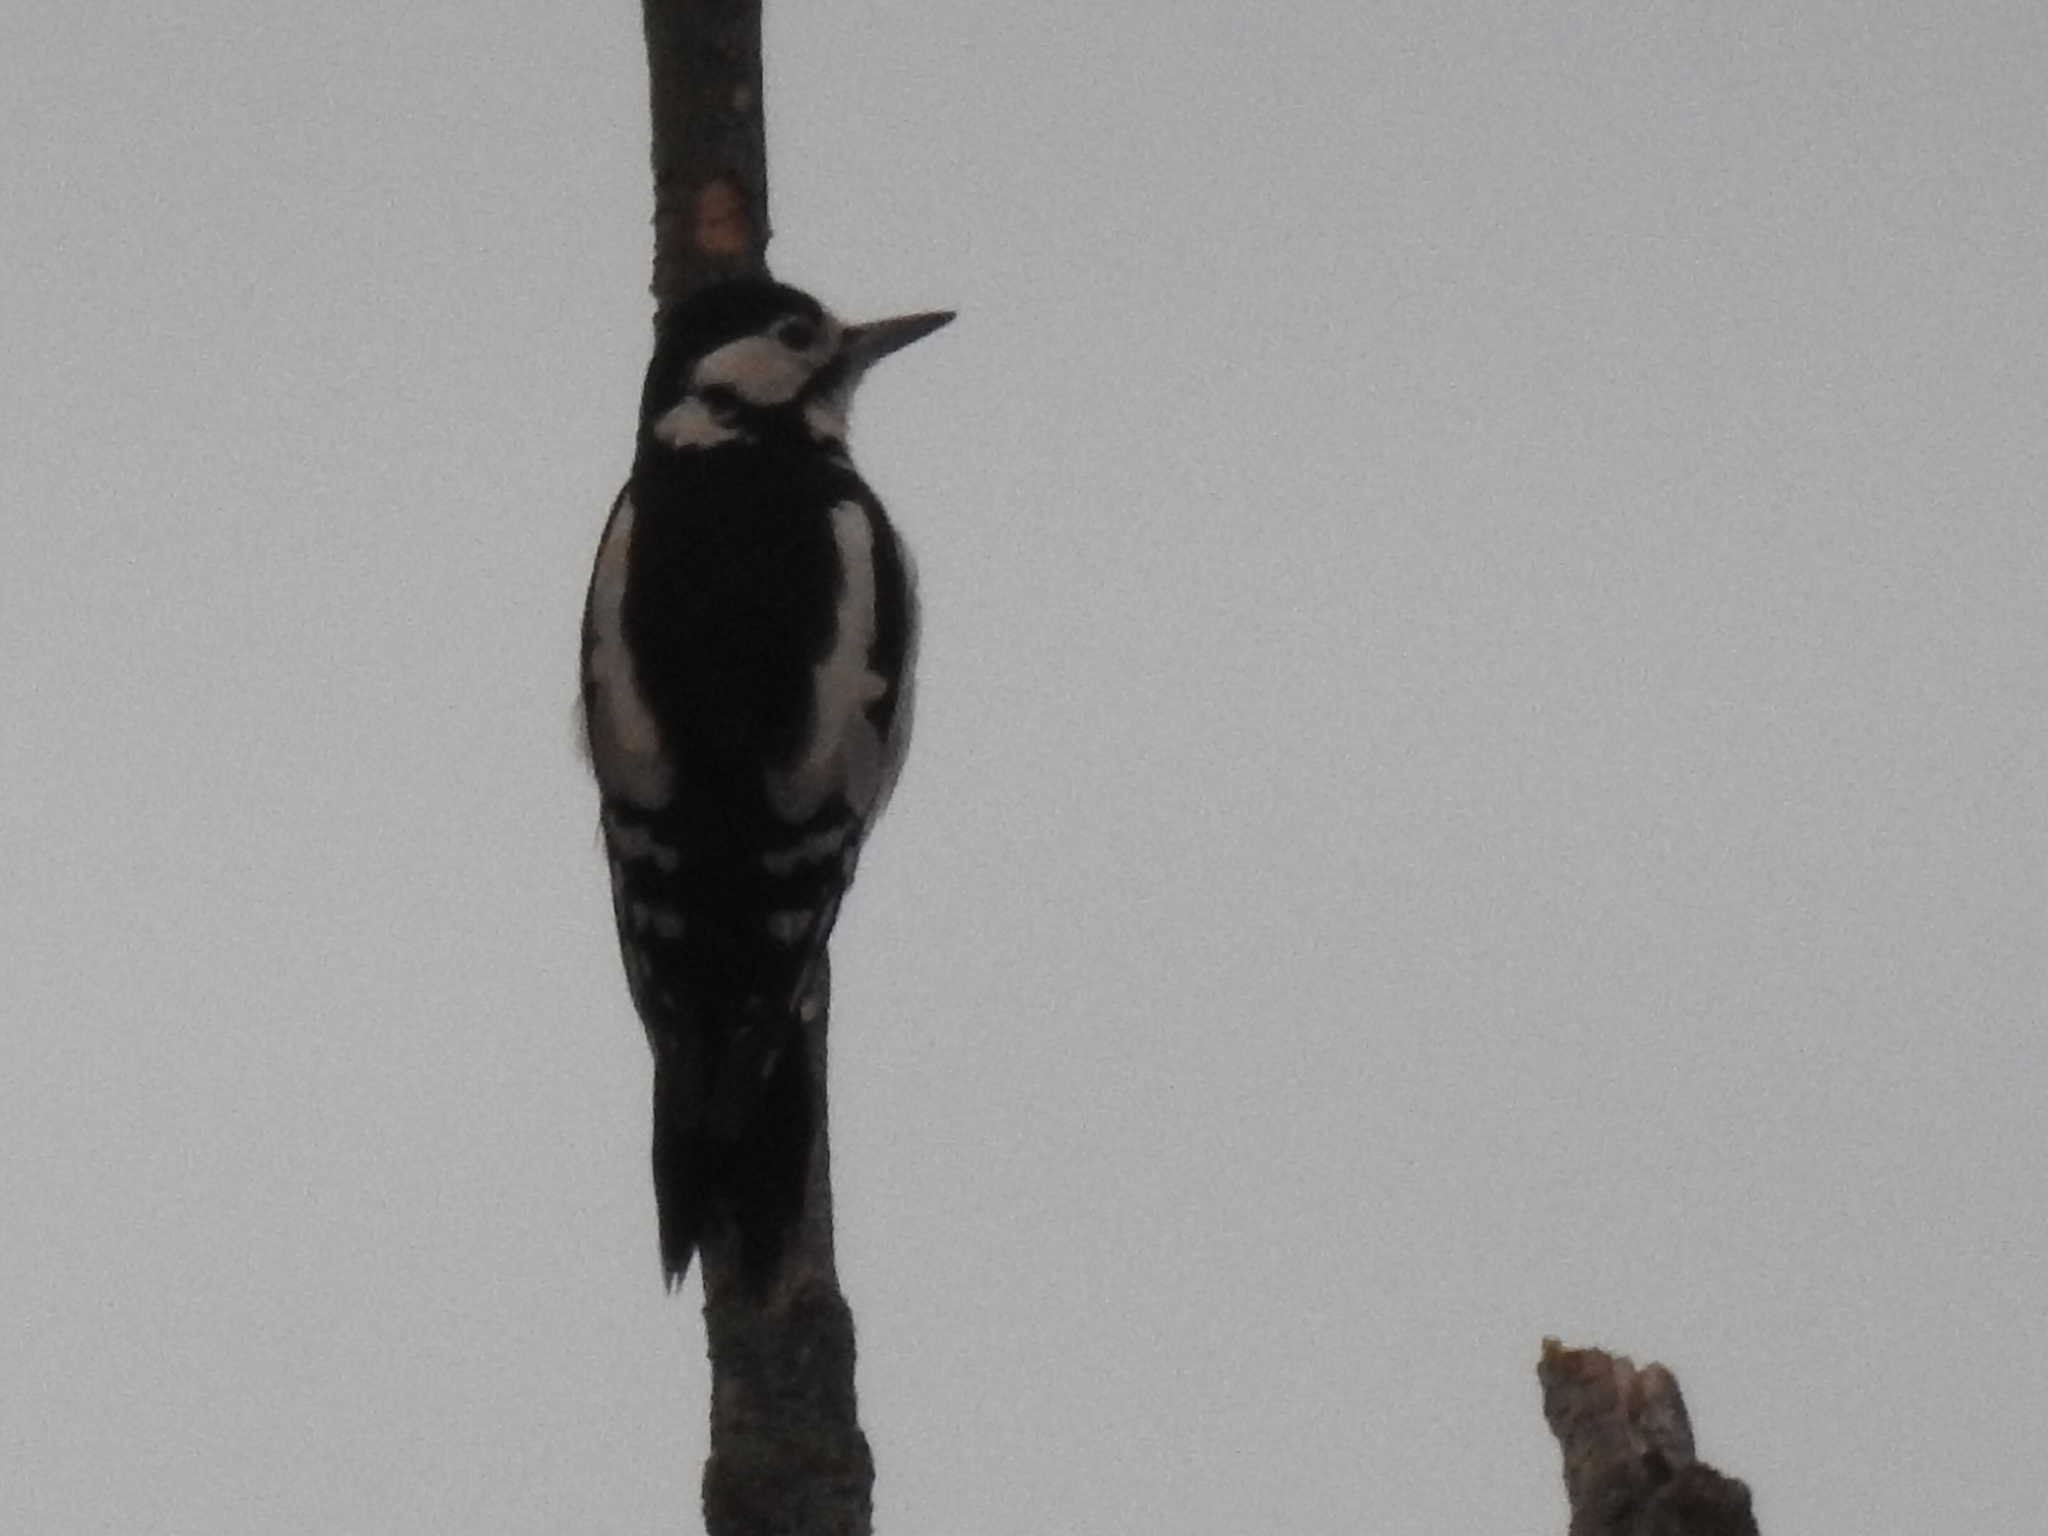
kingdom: Animalia
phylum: Chordata
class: Aves
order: Piciformes
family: Picidae
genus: Dendrocopos
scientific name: Dendrocopos major
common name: Great spotted woodpecker
